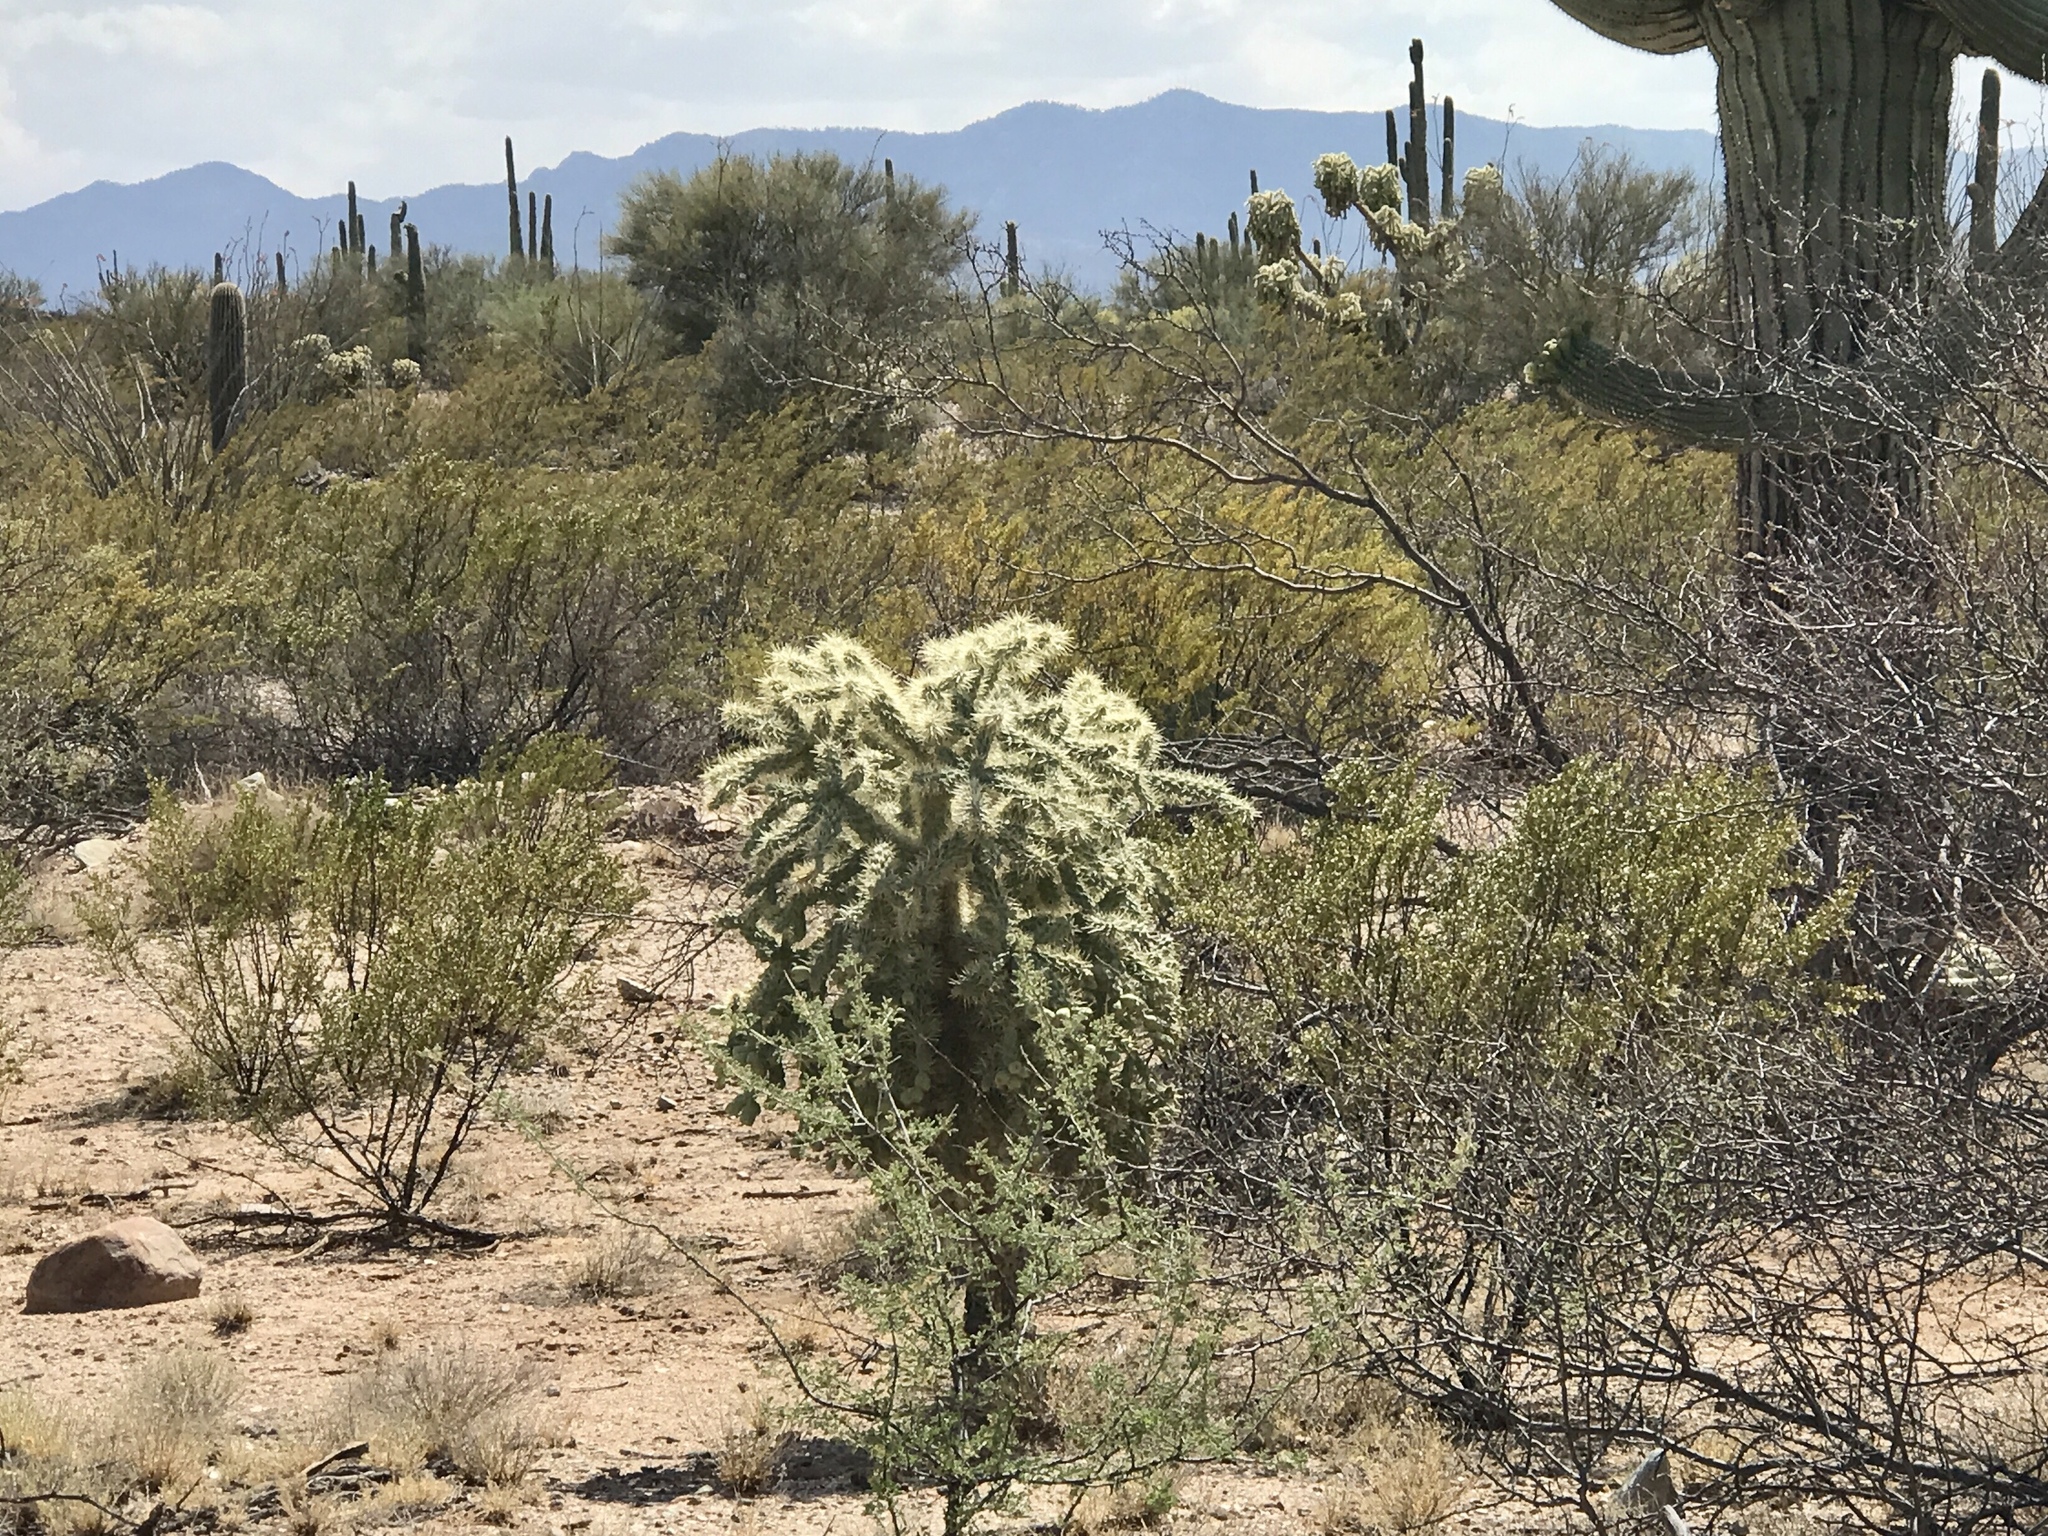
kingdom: Plantae
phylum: Tracheophyta
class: Magnoliopsida
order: Caryophyllales
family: Cactaceae
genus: Cylindropuntia
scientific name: Cylindropuntia fulgida
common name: Jumping cholla
